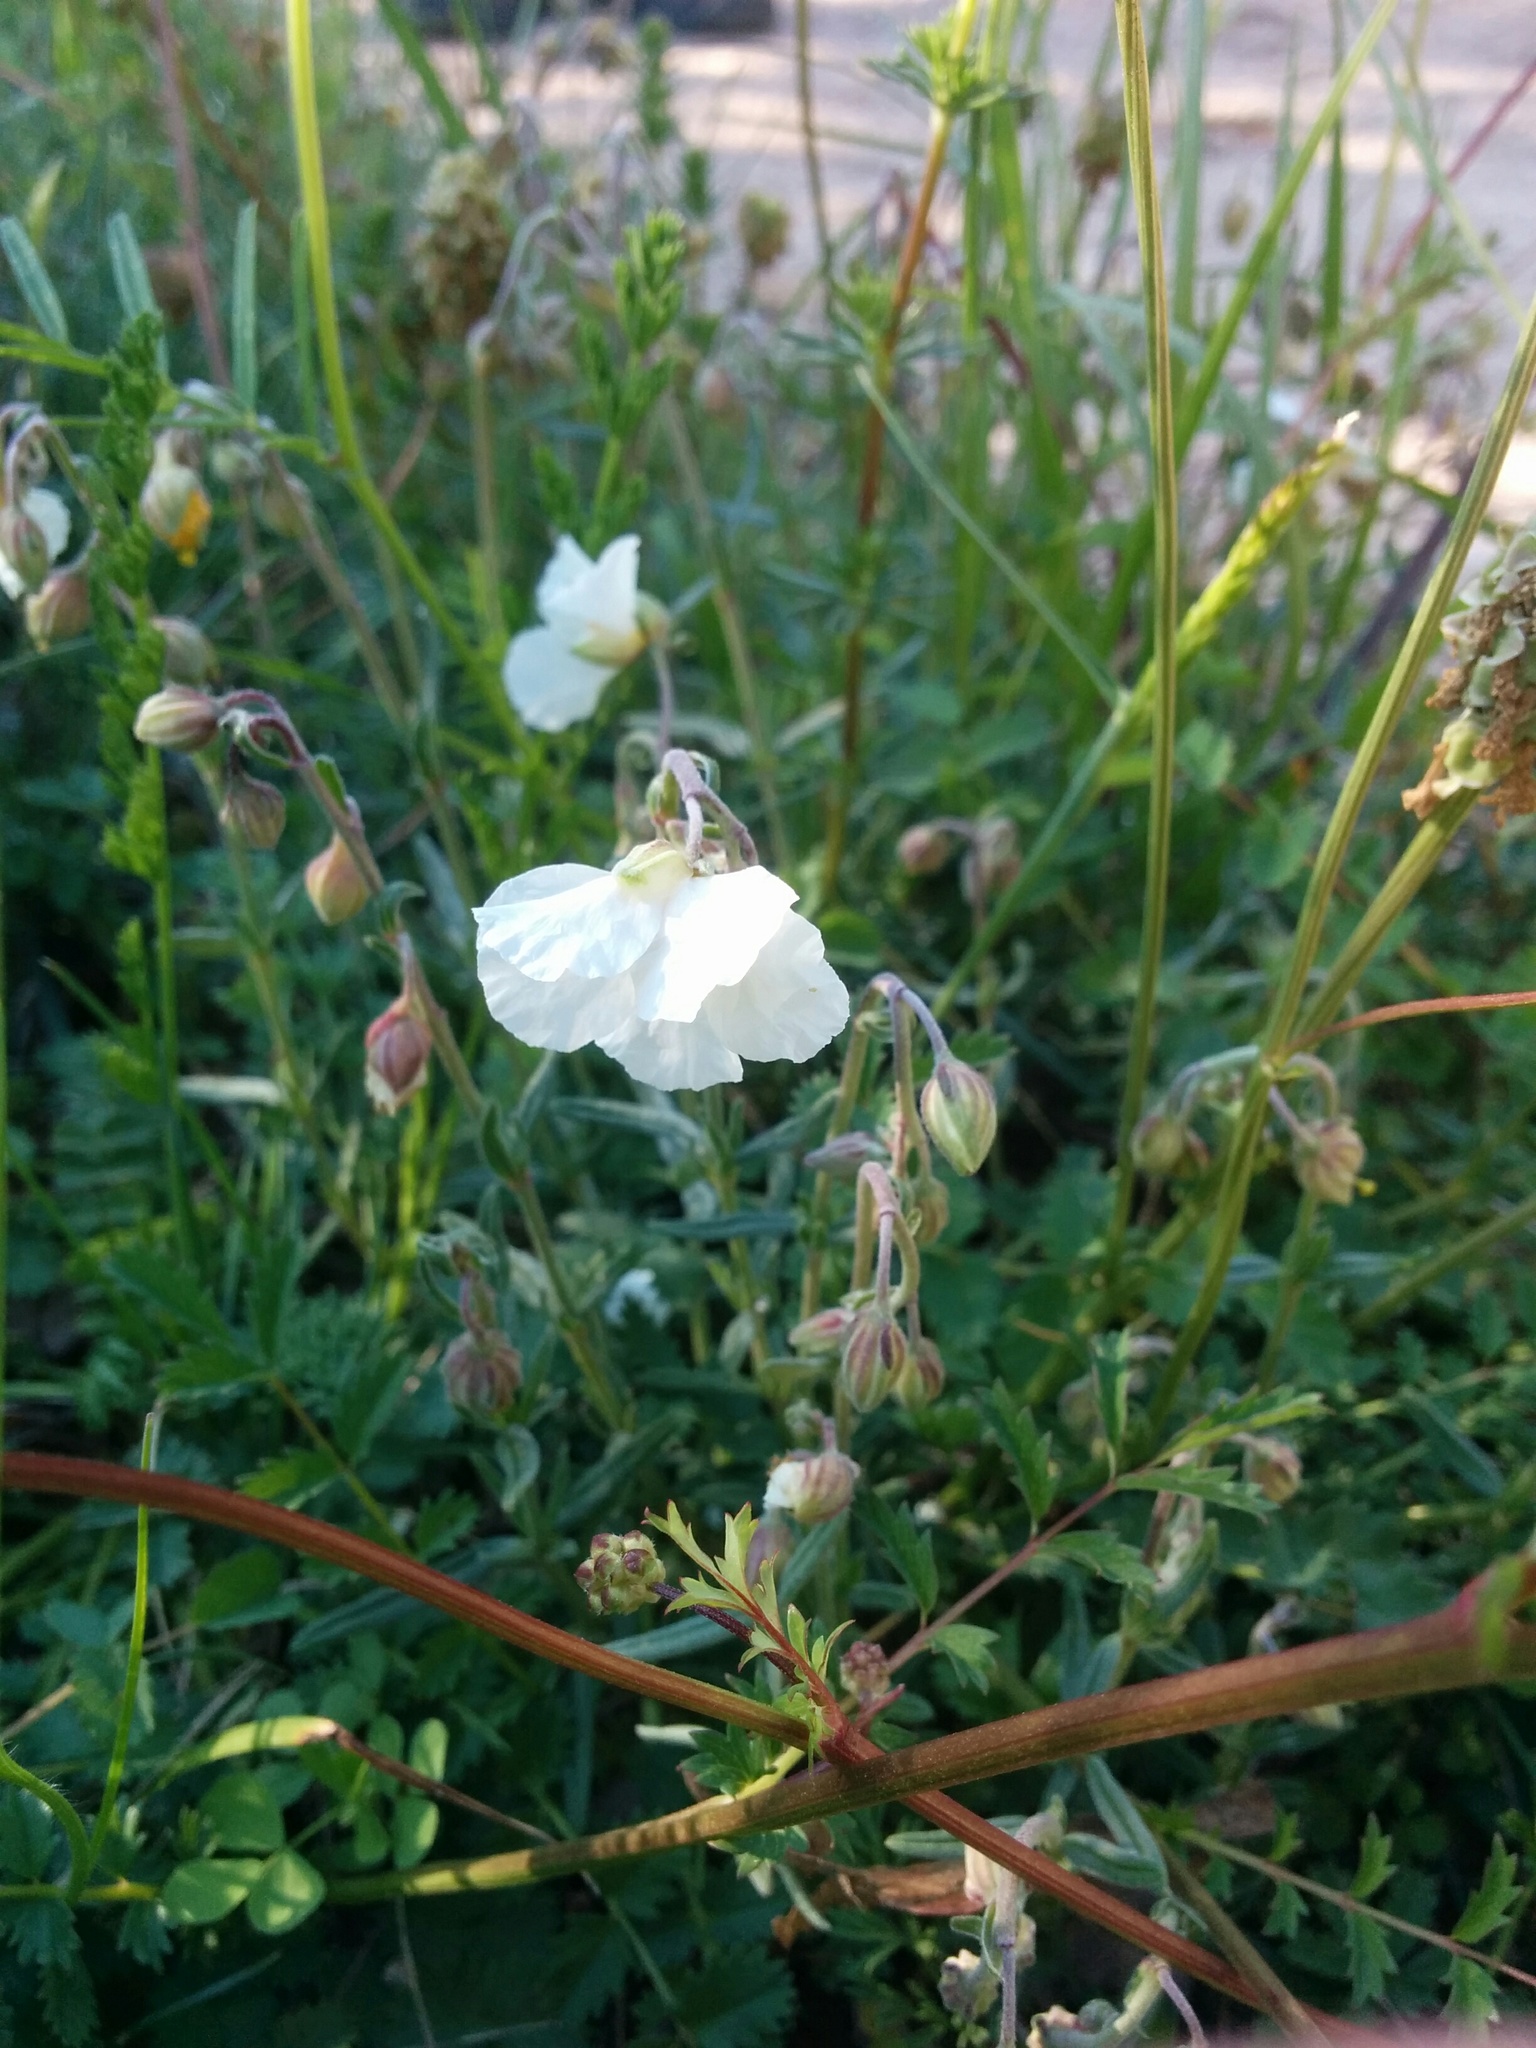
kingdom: Plantae
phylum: Tracheophyta
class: Magnoliopsida
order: Malvales
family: Cistaceae
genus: Helianthemum
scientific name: Helianthemum apenninum
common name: White rock-rose
